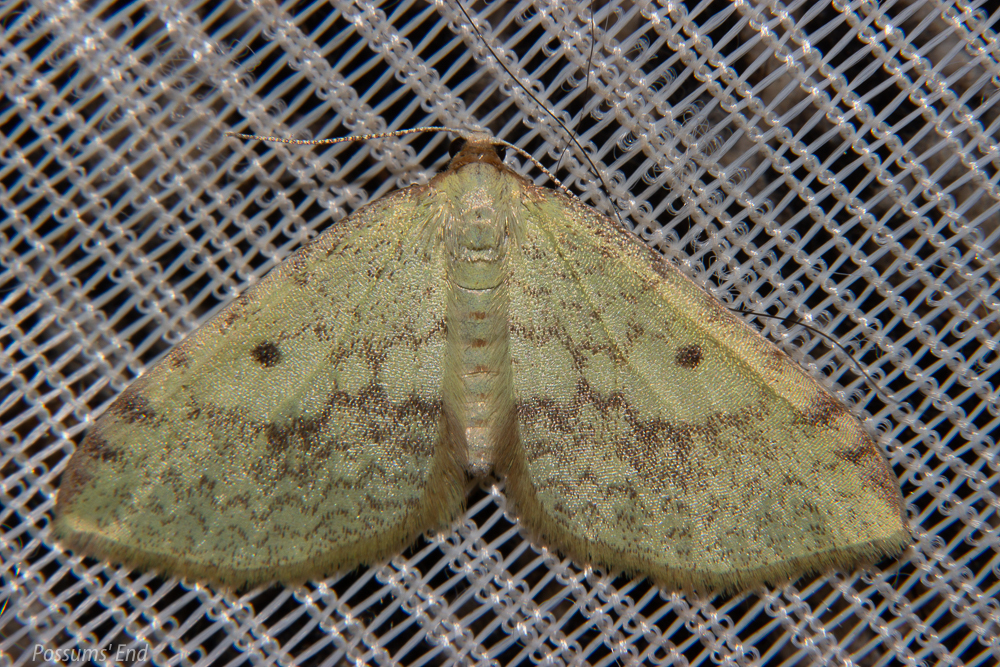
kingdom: Animalia
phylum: Arthropoda
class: Insecta
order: Lepidoptera
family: Geometridae
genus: Epiphryne
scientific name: Epiphryne undosata
